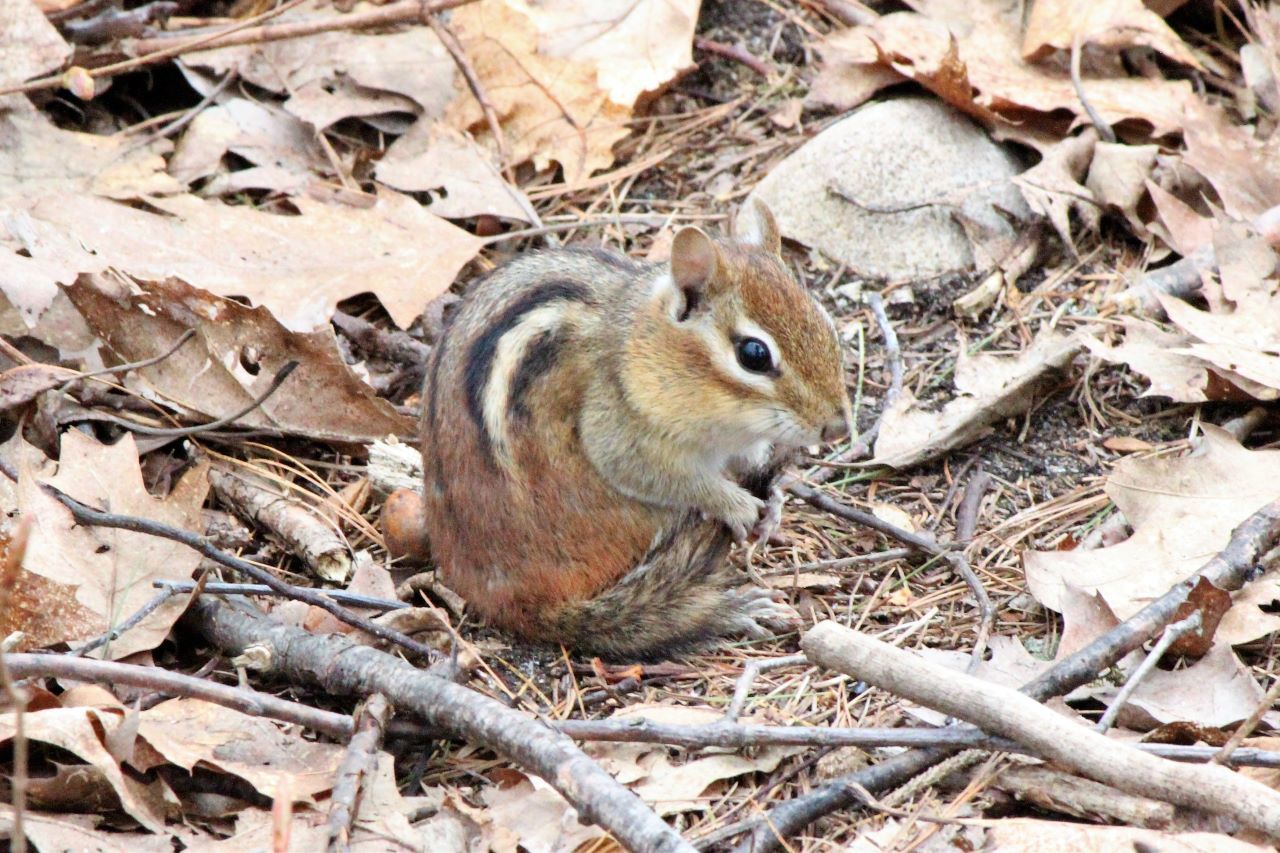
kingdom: Animalia
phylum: Chordata
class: Mammalia
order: Rodentia
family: Sciuridae
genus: Tamias
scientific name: Tamias striatus
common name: Eastern chipmunk
